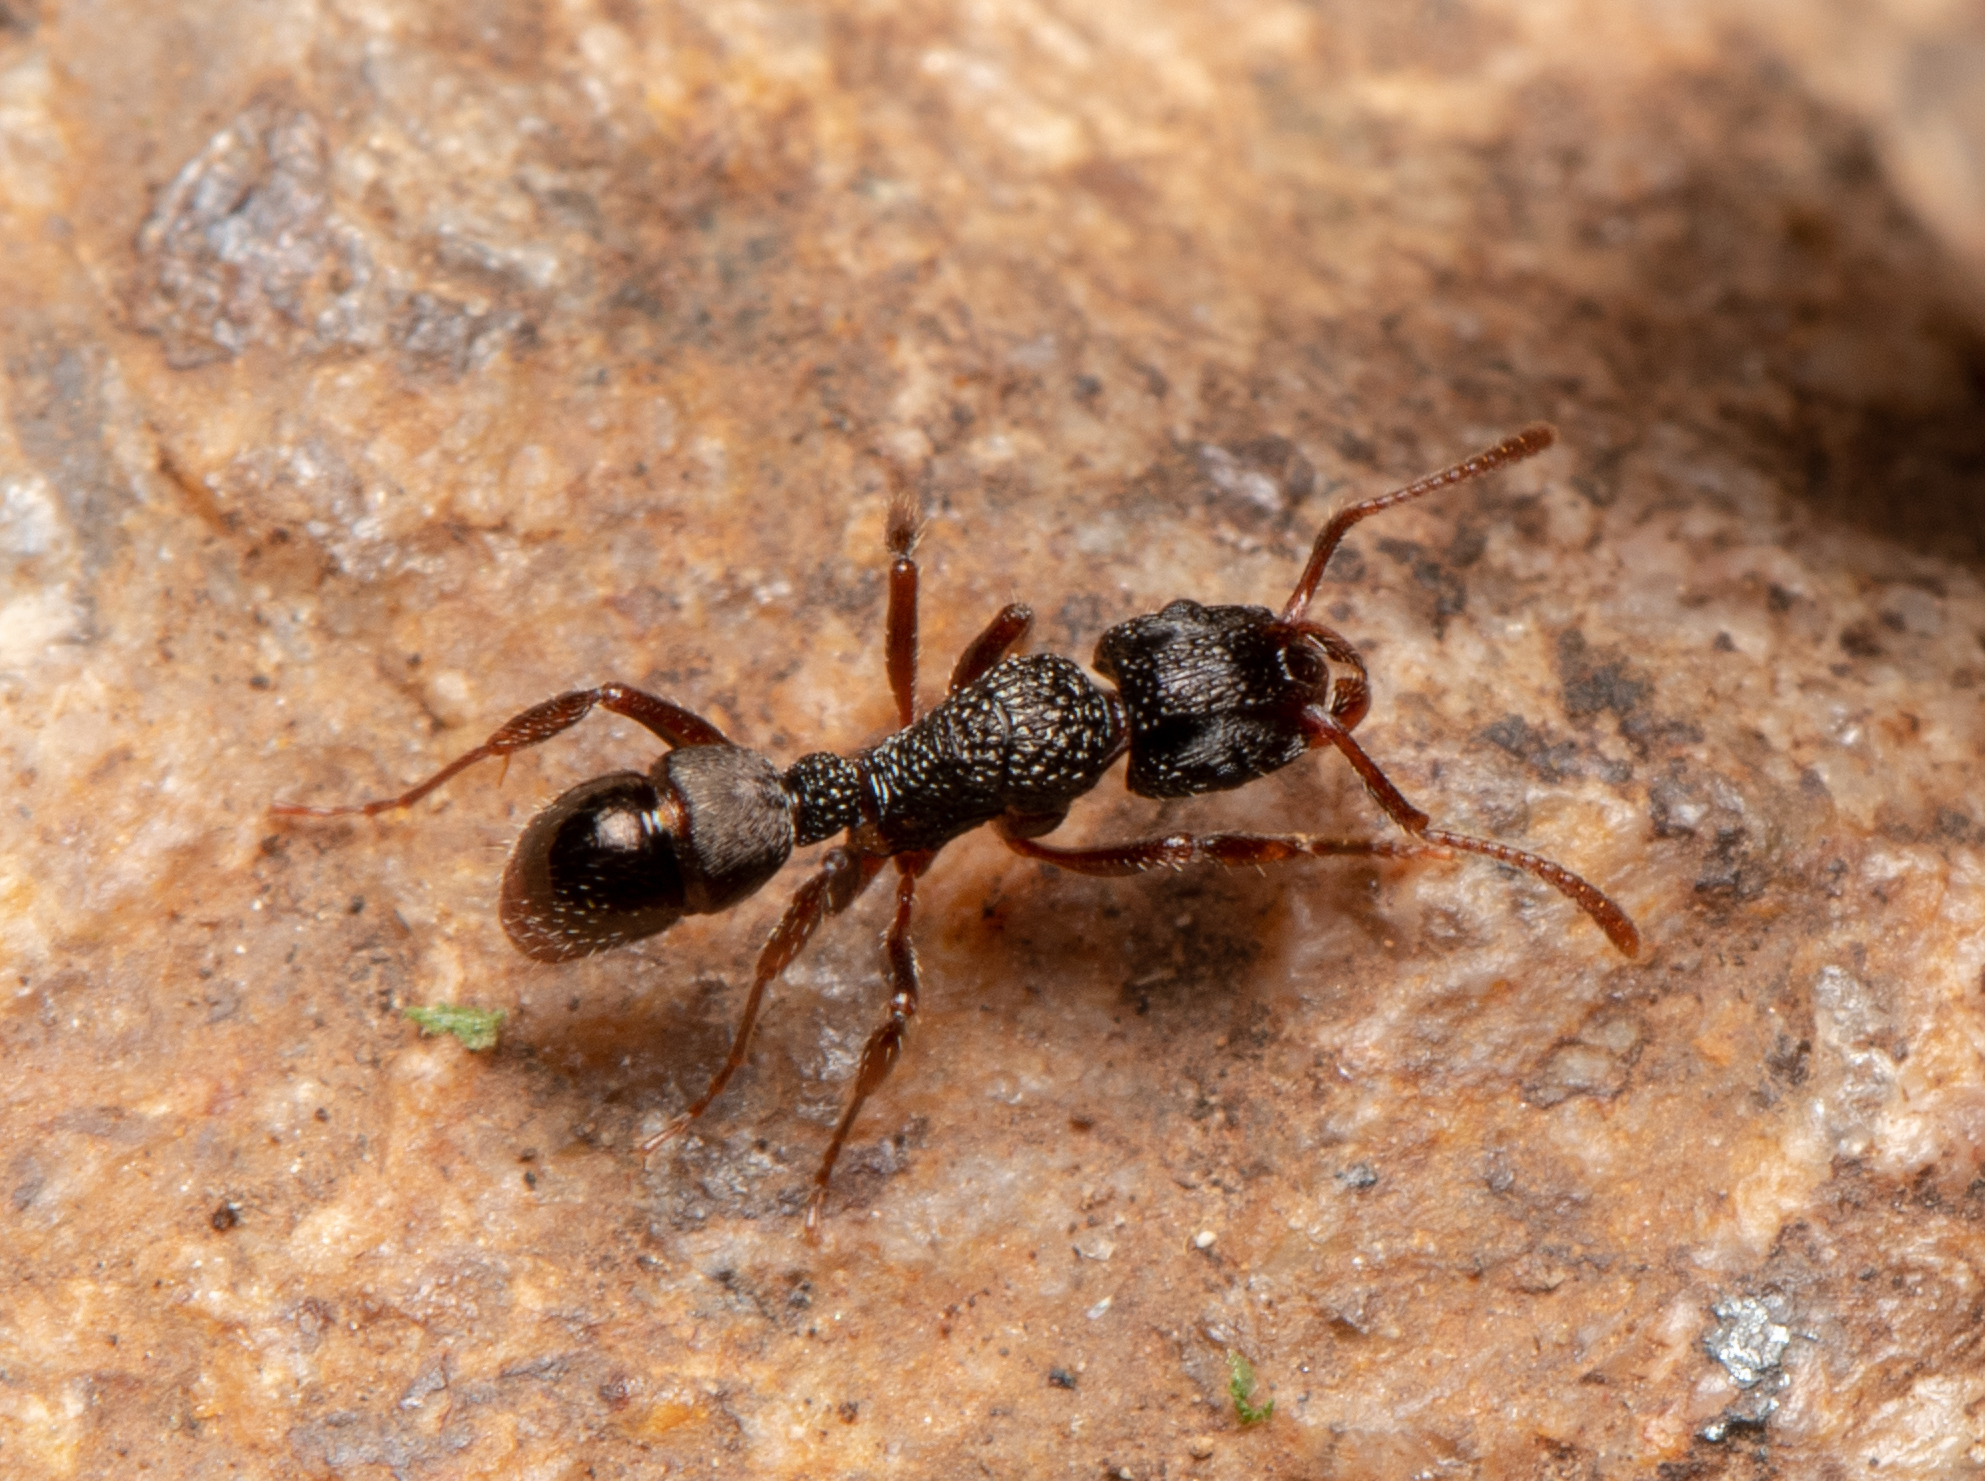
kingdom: Animalia
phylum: Arthropoda
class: Insecta
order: Hymenoptera
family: Formicidae
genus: Rhytidoponera
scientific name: Rhytidoponera victoriae
